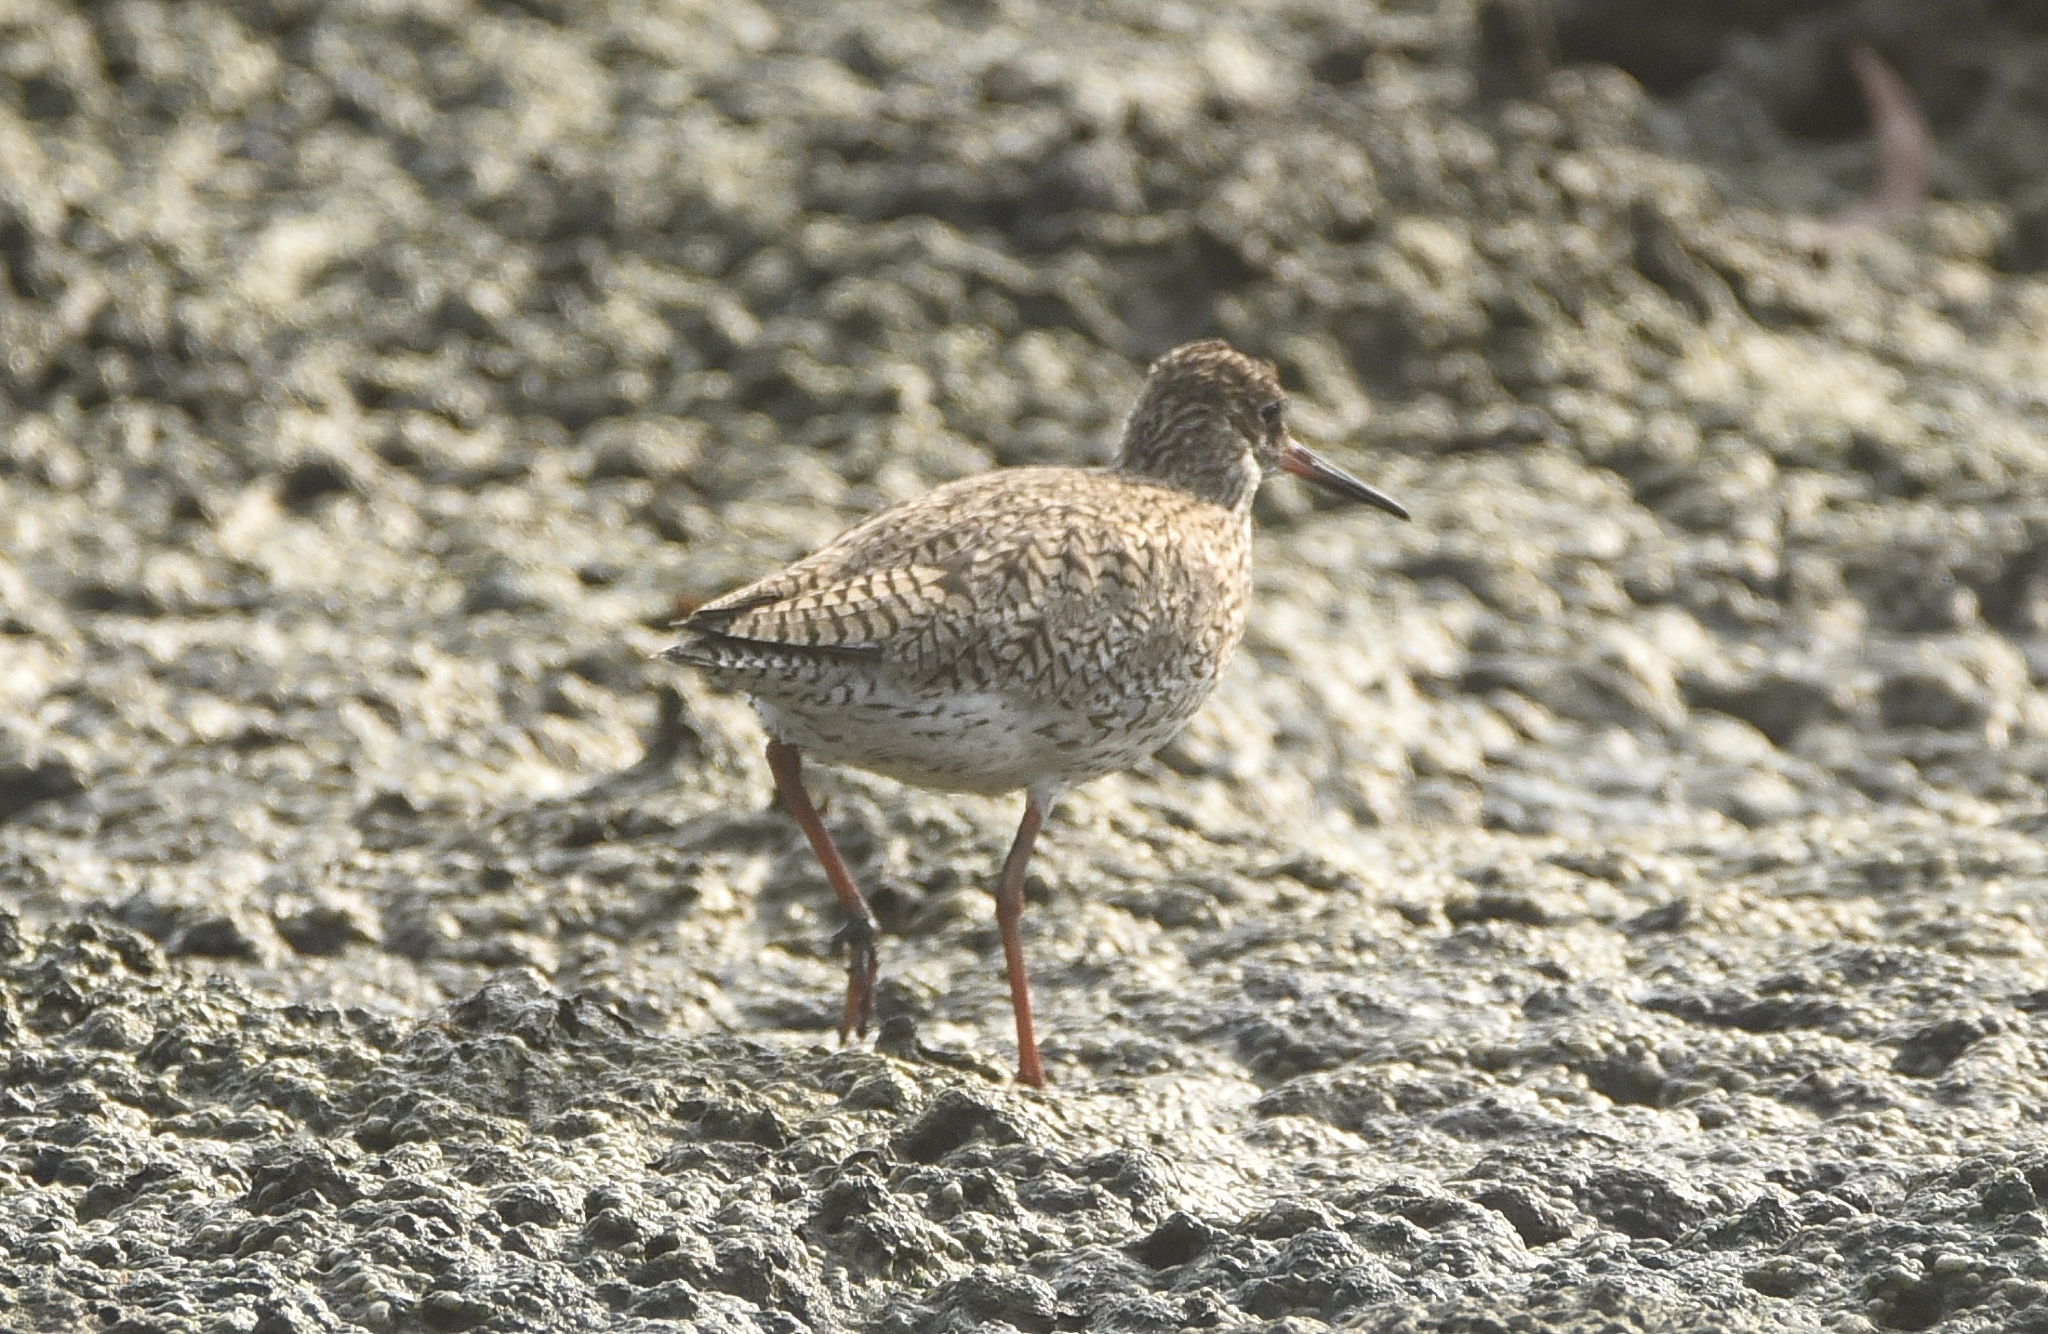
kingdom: Animalia
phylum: Chordata
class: Aves
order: Charadriiformes
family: Scolopacidae
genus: Tringa
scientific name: Tringa totanus
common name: Common redshank
